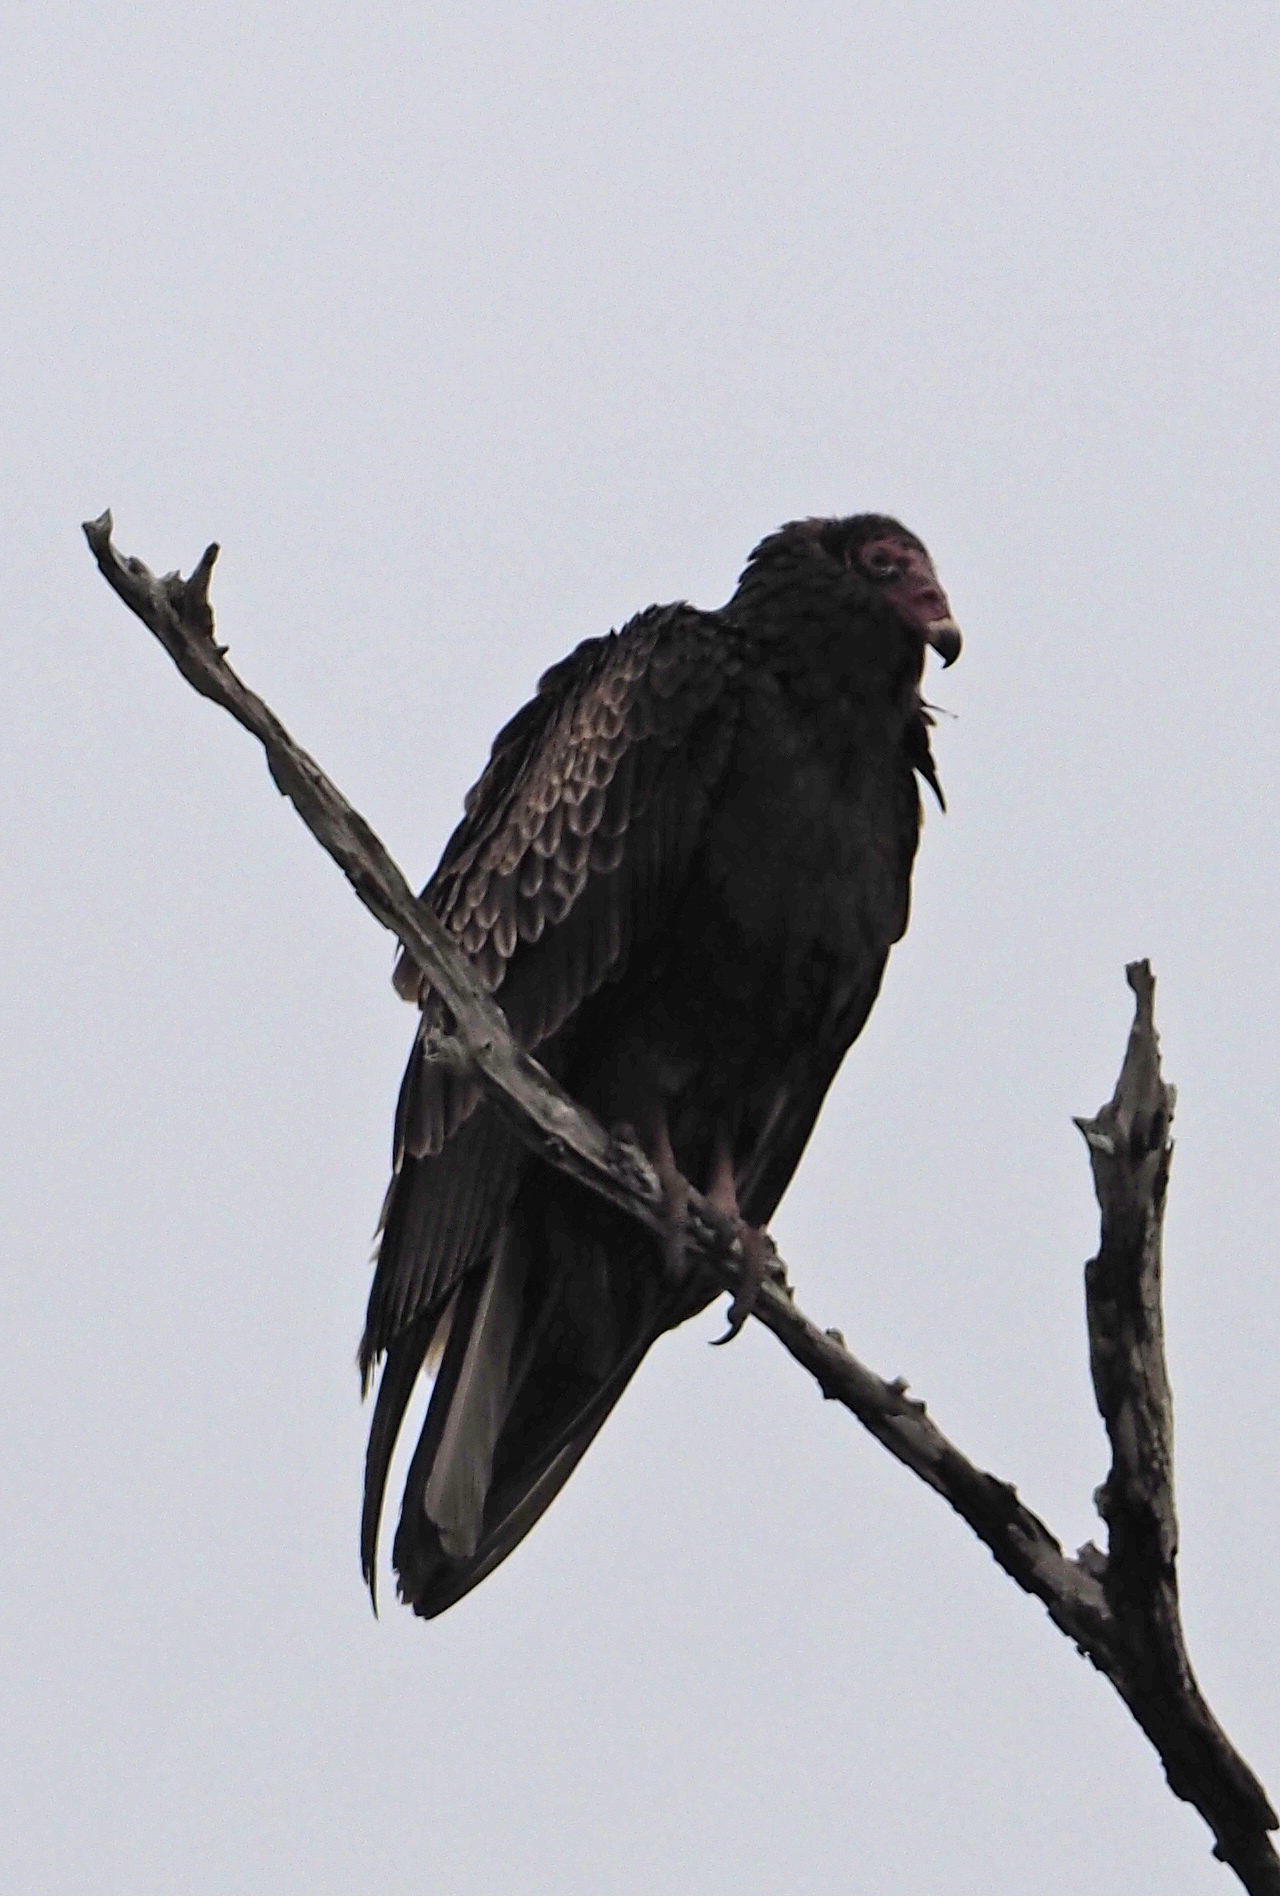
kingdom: Animalia
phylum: Chordata
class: Aves
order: Accipitriformes
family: Cathartidae
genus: Cathartes
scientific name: Cathartes aura
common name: Turkey vulture
